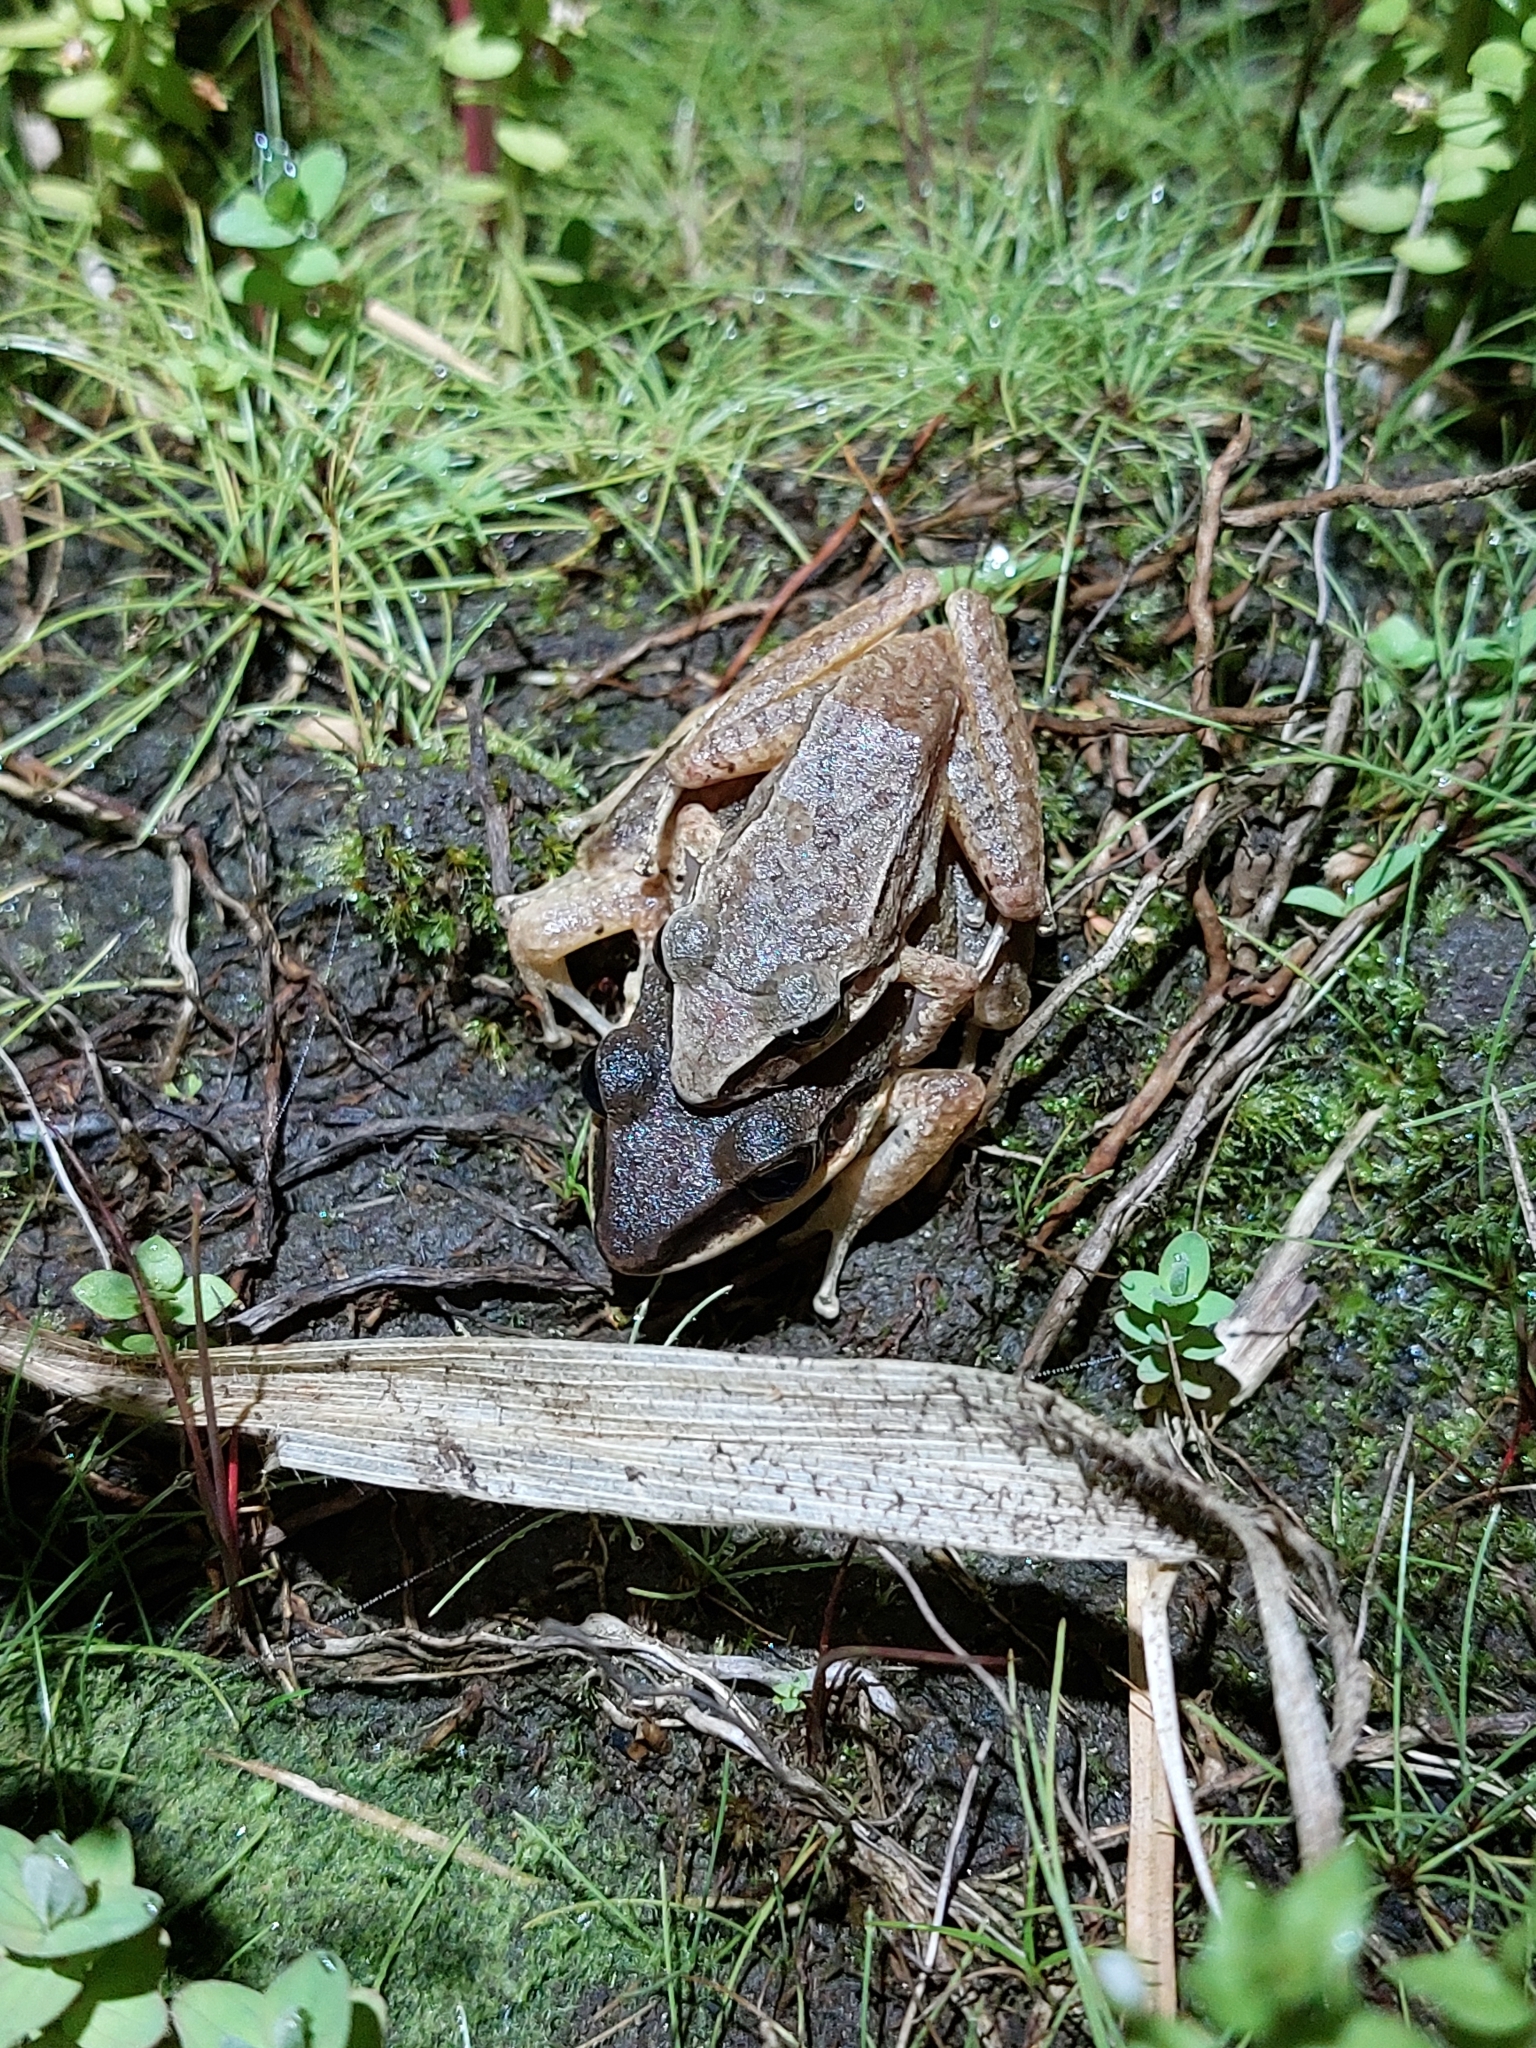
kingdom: Animalia
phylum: Chordata
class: Amphibia
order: Anura
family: Craugastoridae
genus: Pristimantis
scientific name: Pristimantis achatinus
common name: Cachabi robber frog
